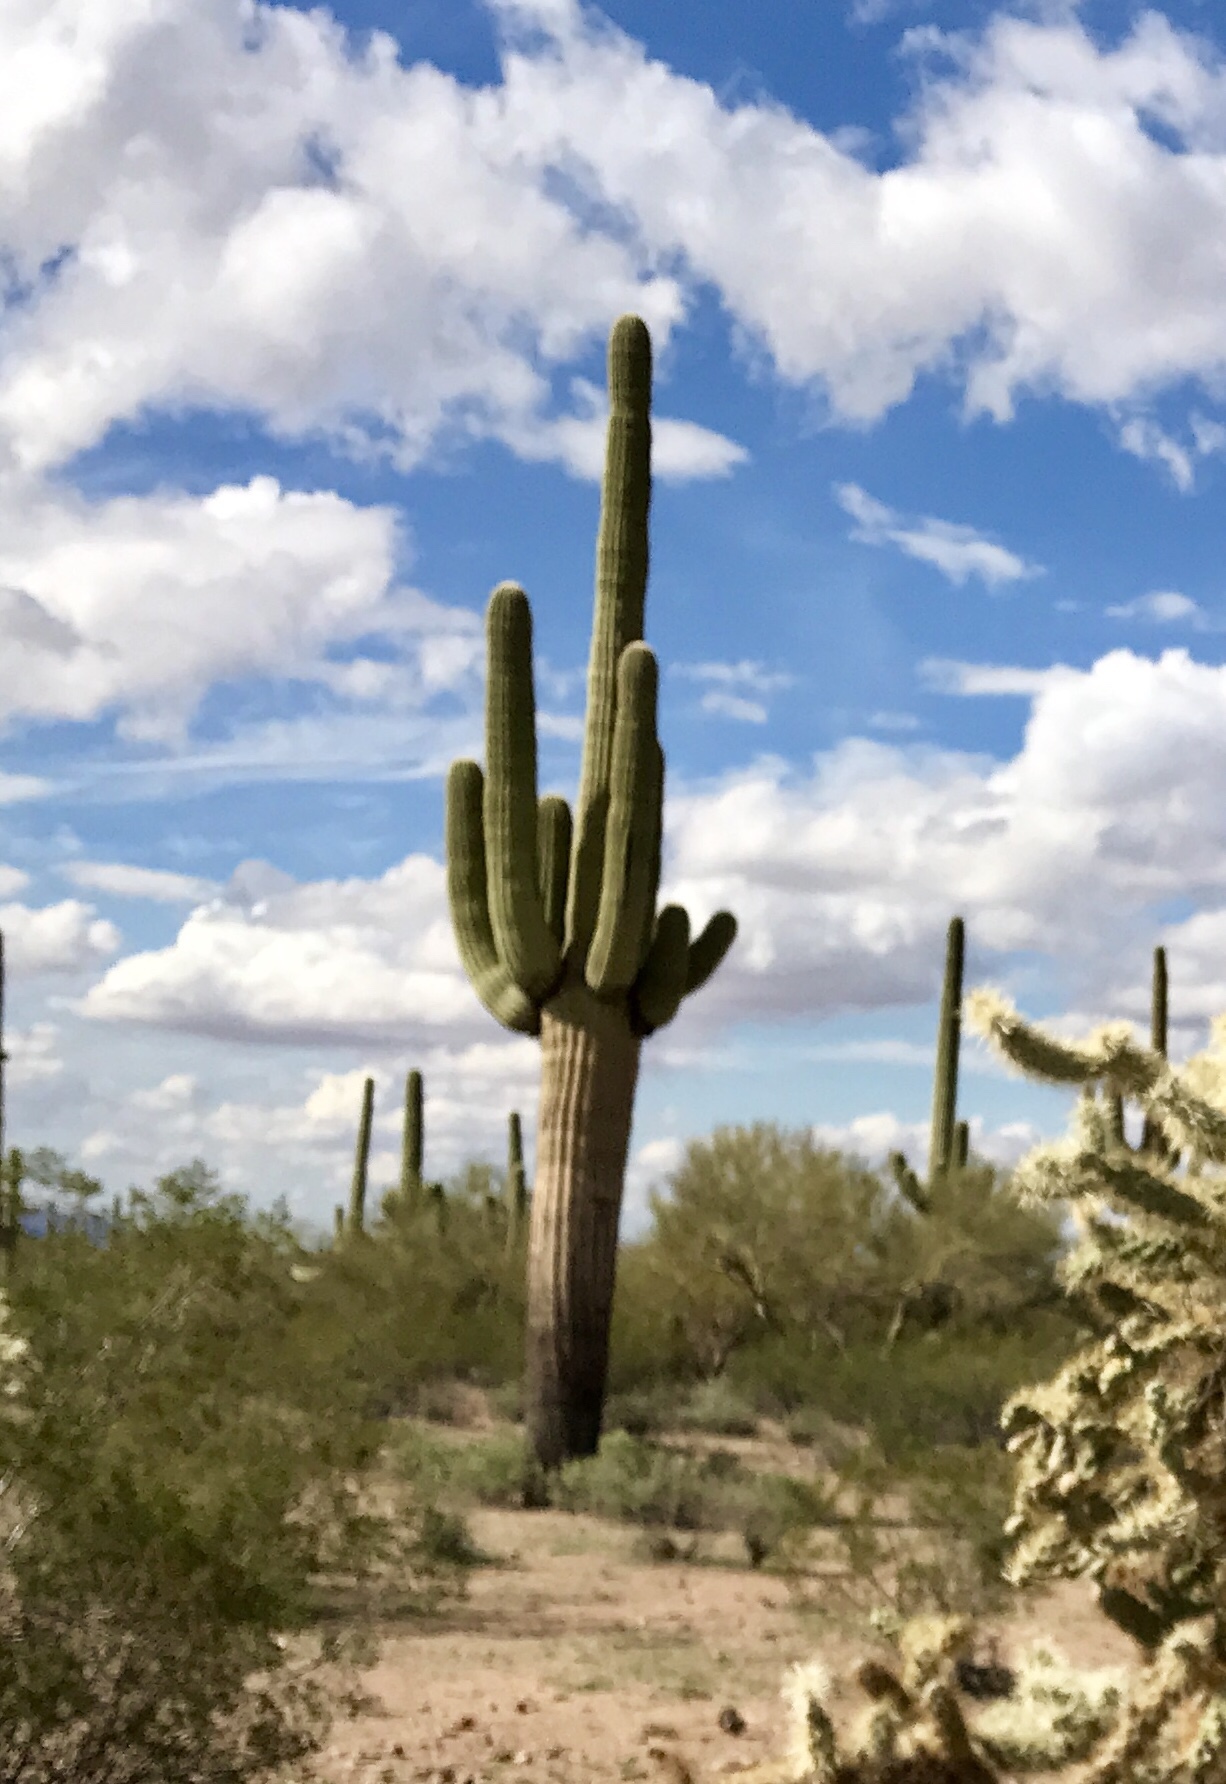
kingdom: Plantae
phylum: Tracheophyta
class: Magnoliopsida
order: Caryophyllales
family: Cactaceae
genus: Carnegiea
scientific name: Carnegiea gigantea
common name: Saguaro
